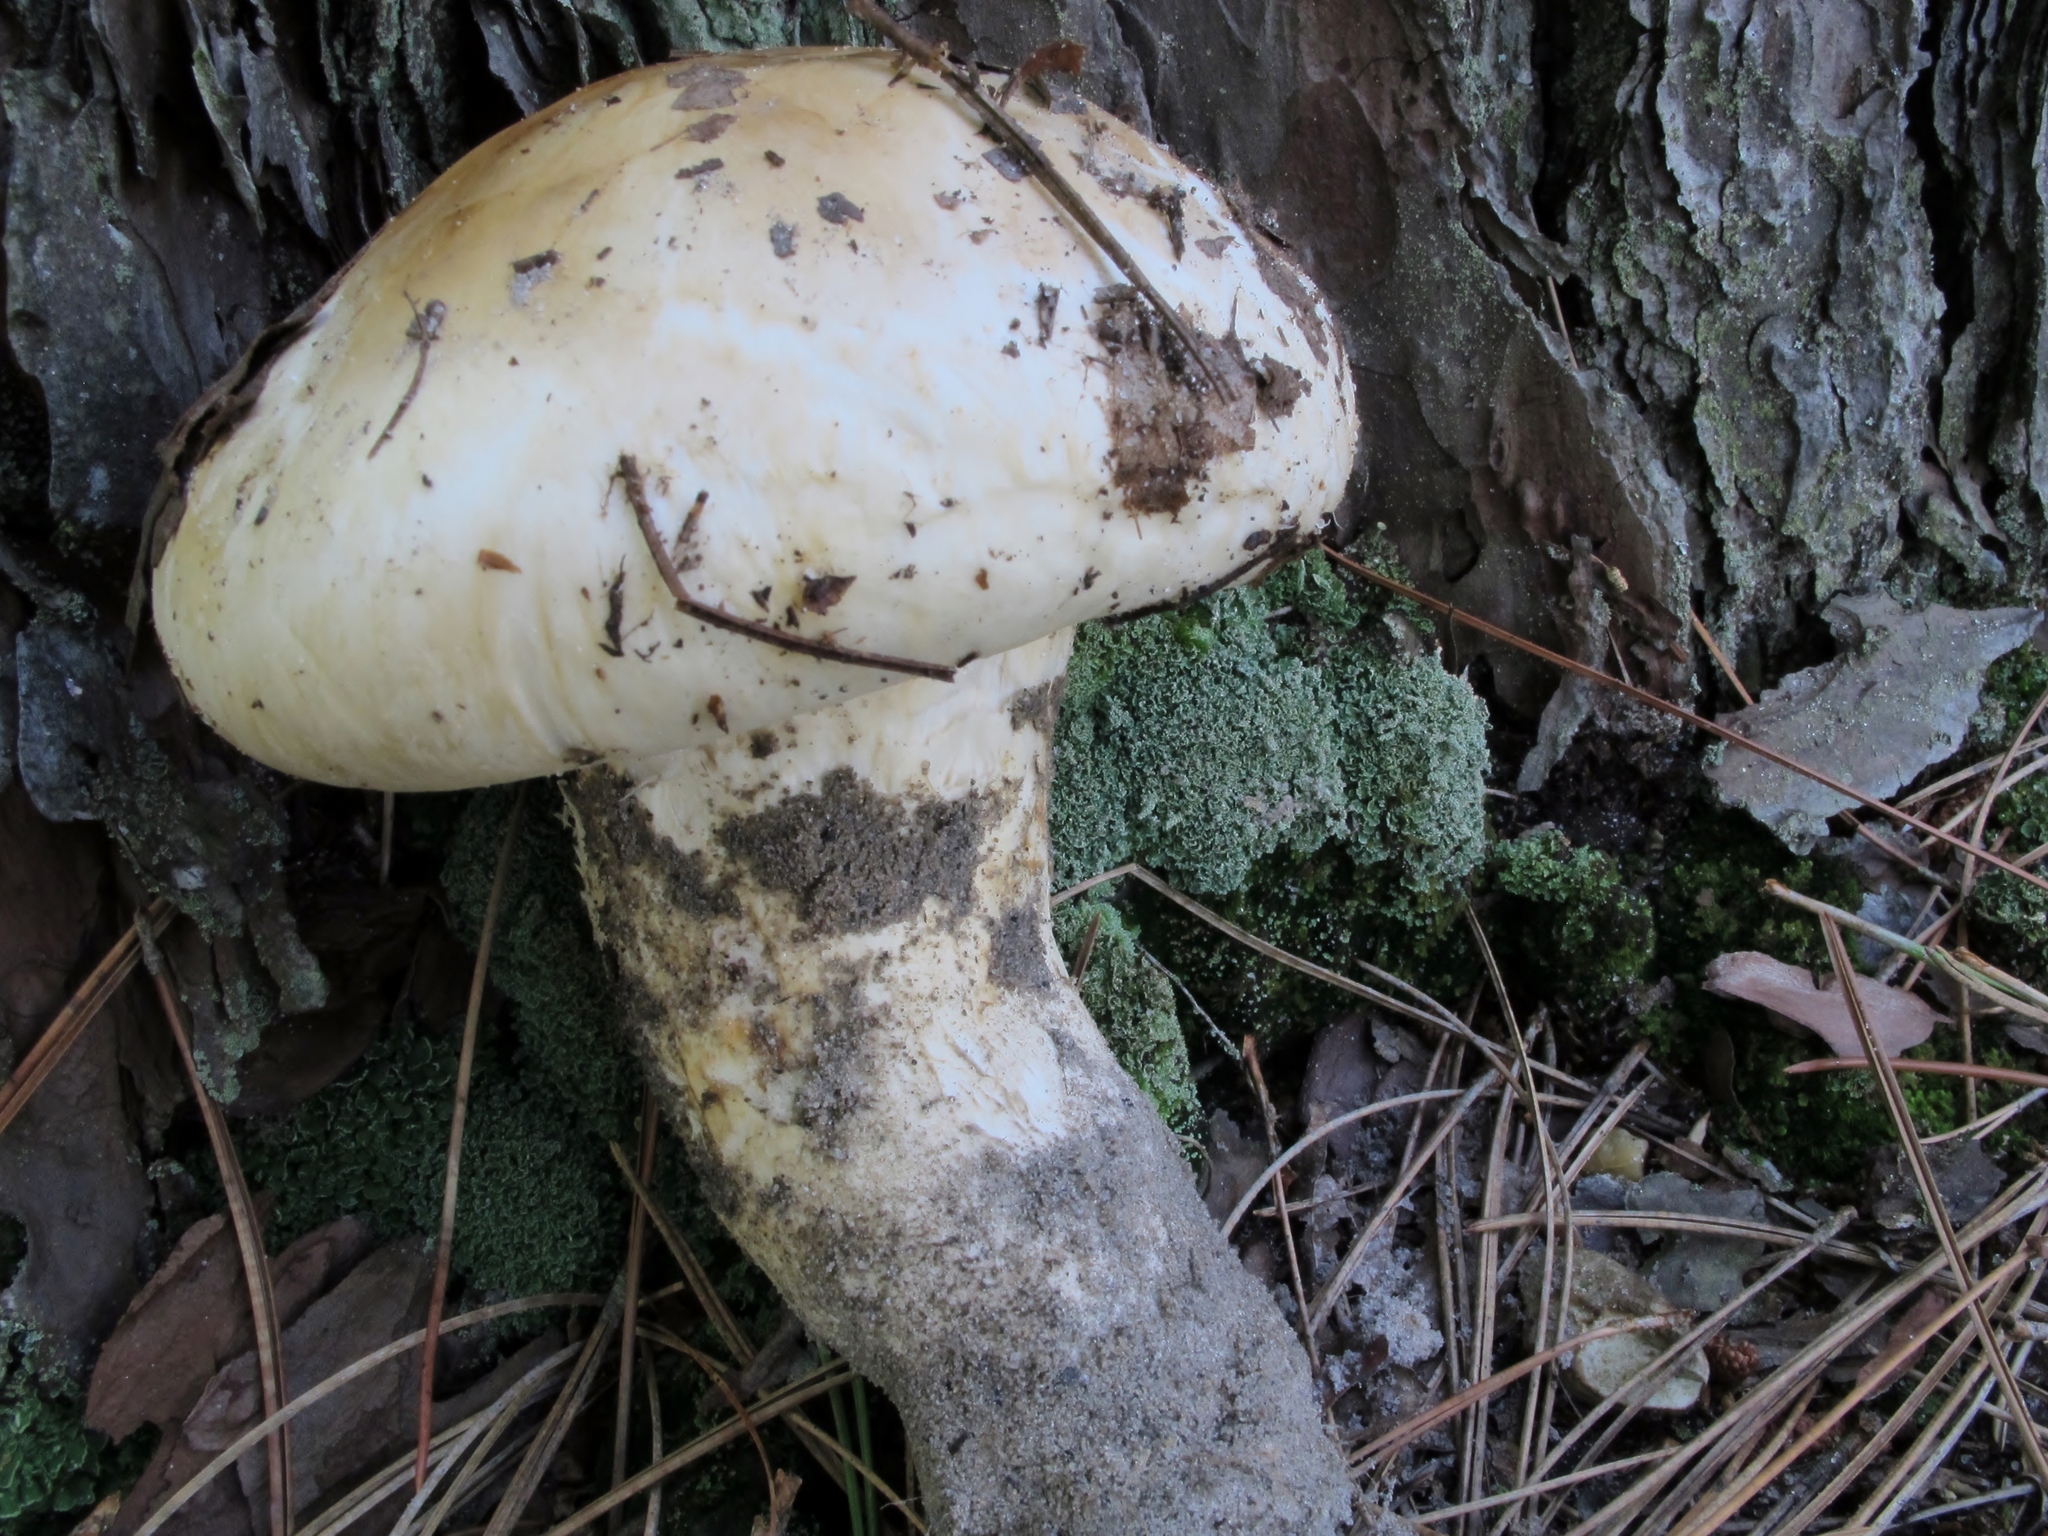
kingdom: Fungi
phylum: Basidiomycota
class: Agaricomycetes
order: Agaricales
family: Tricholomataceae
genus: Tricholoma
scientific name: Tricholoma magnivelare
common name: American matsutake
